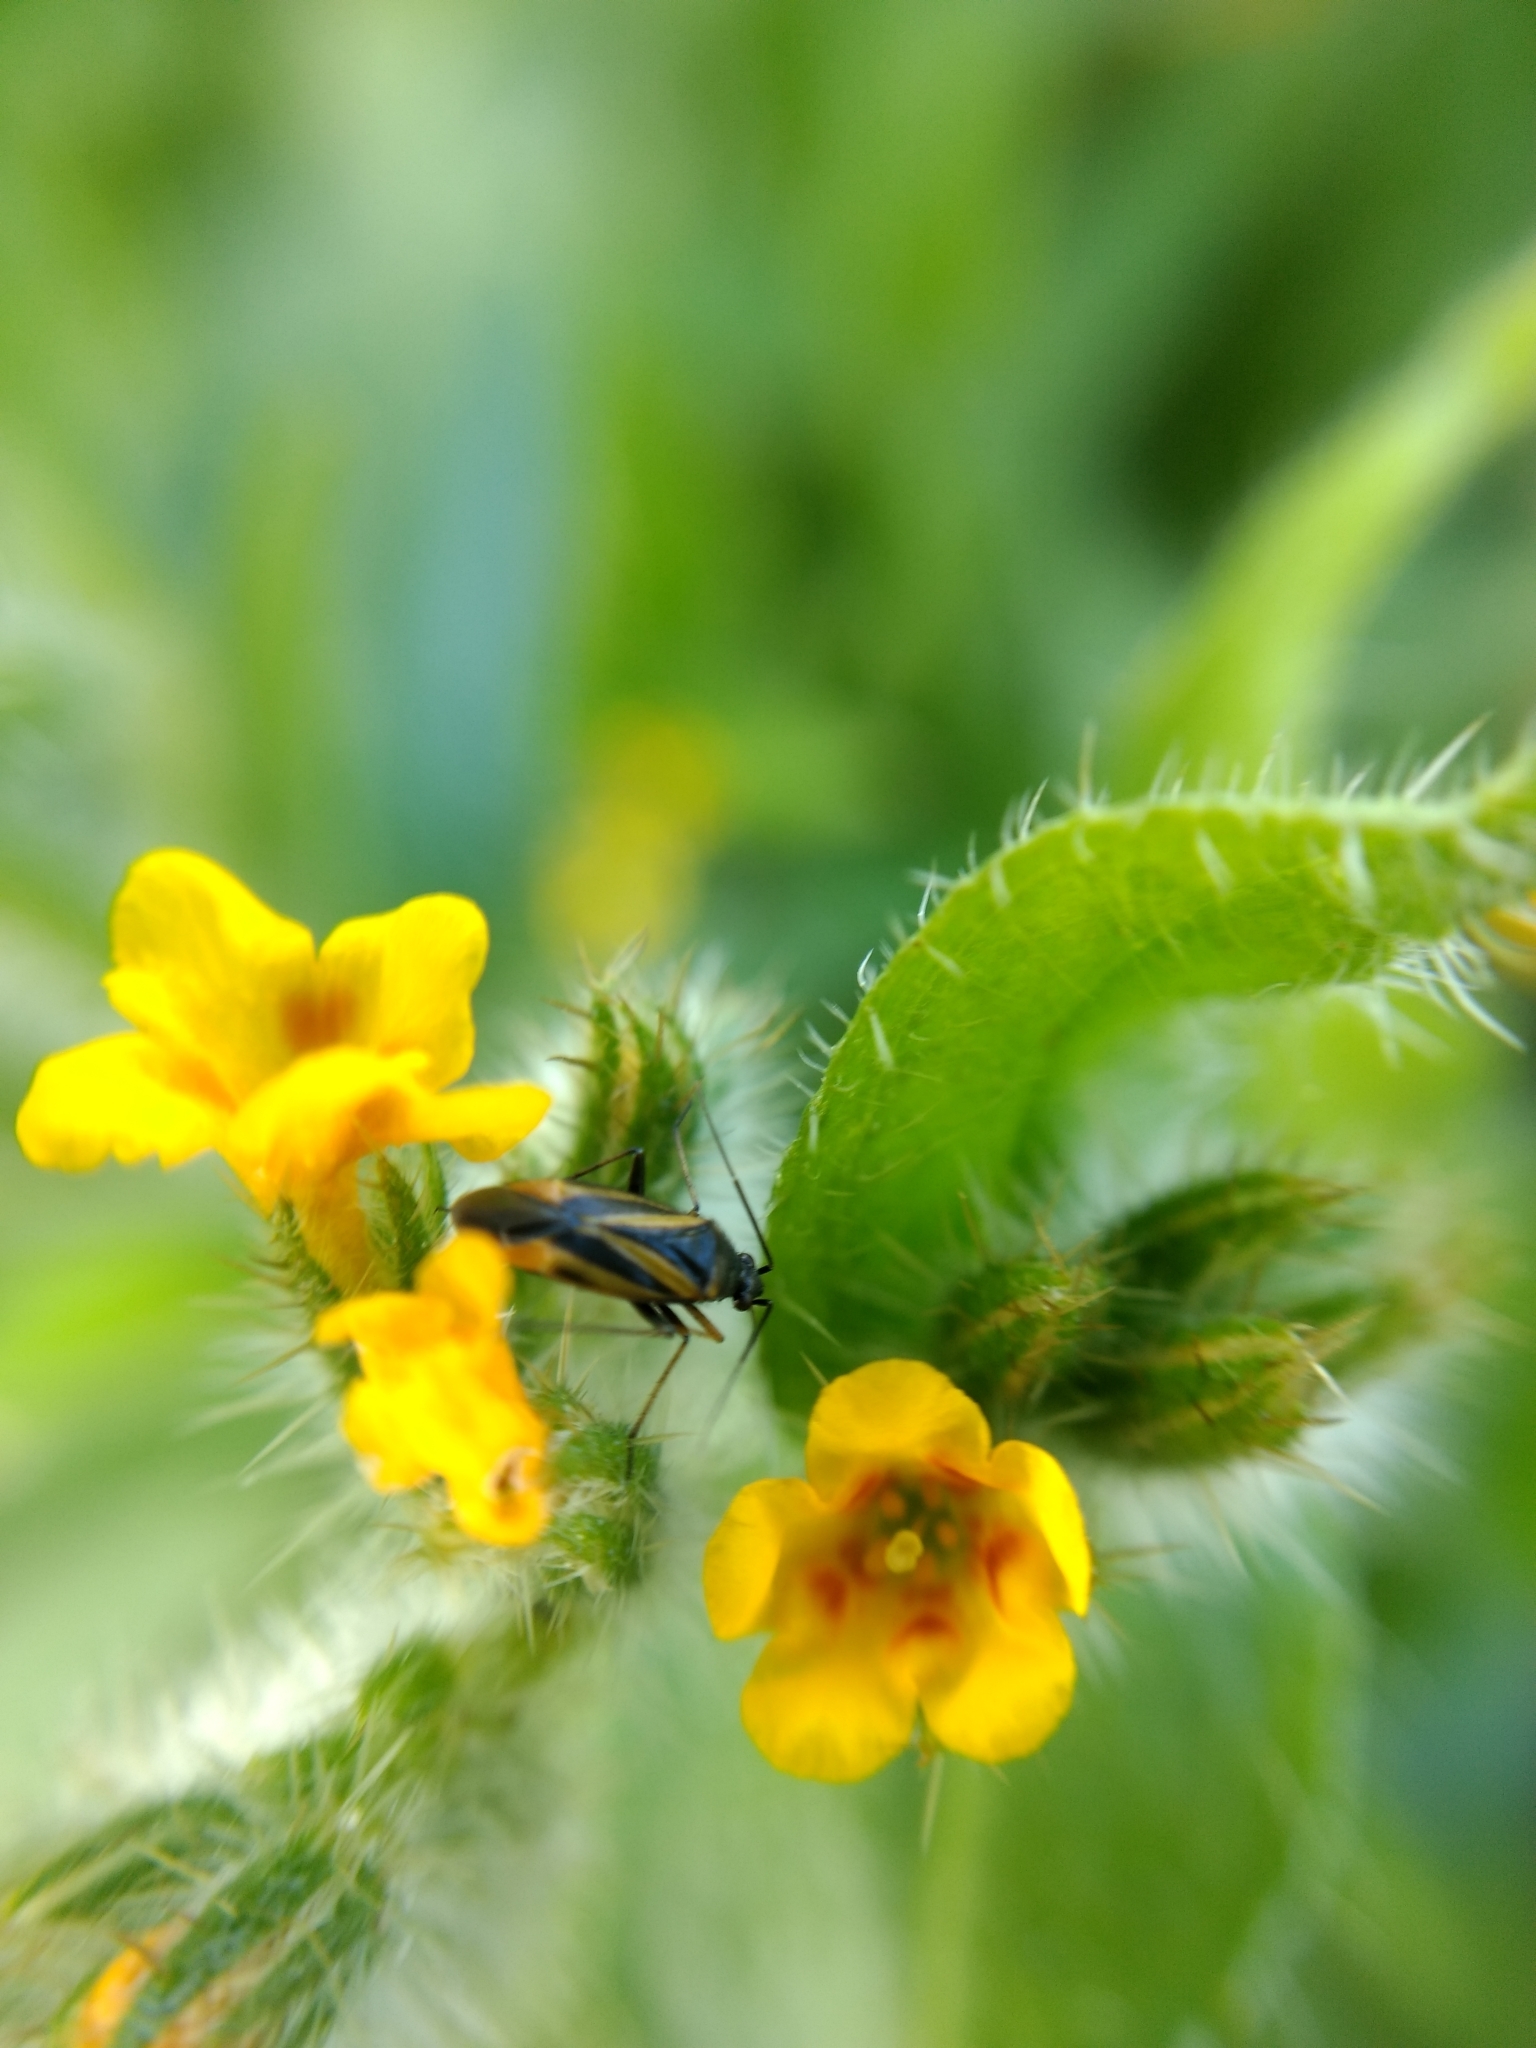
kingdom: Animalia
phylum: Arthropoda
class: Insecta
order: Hemiptera
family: Miridae
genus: Plagiognathus
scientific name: Plagiognathus moerens
